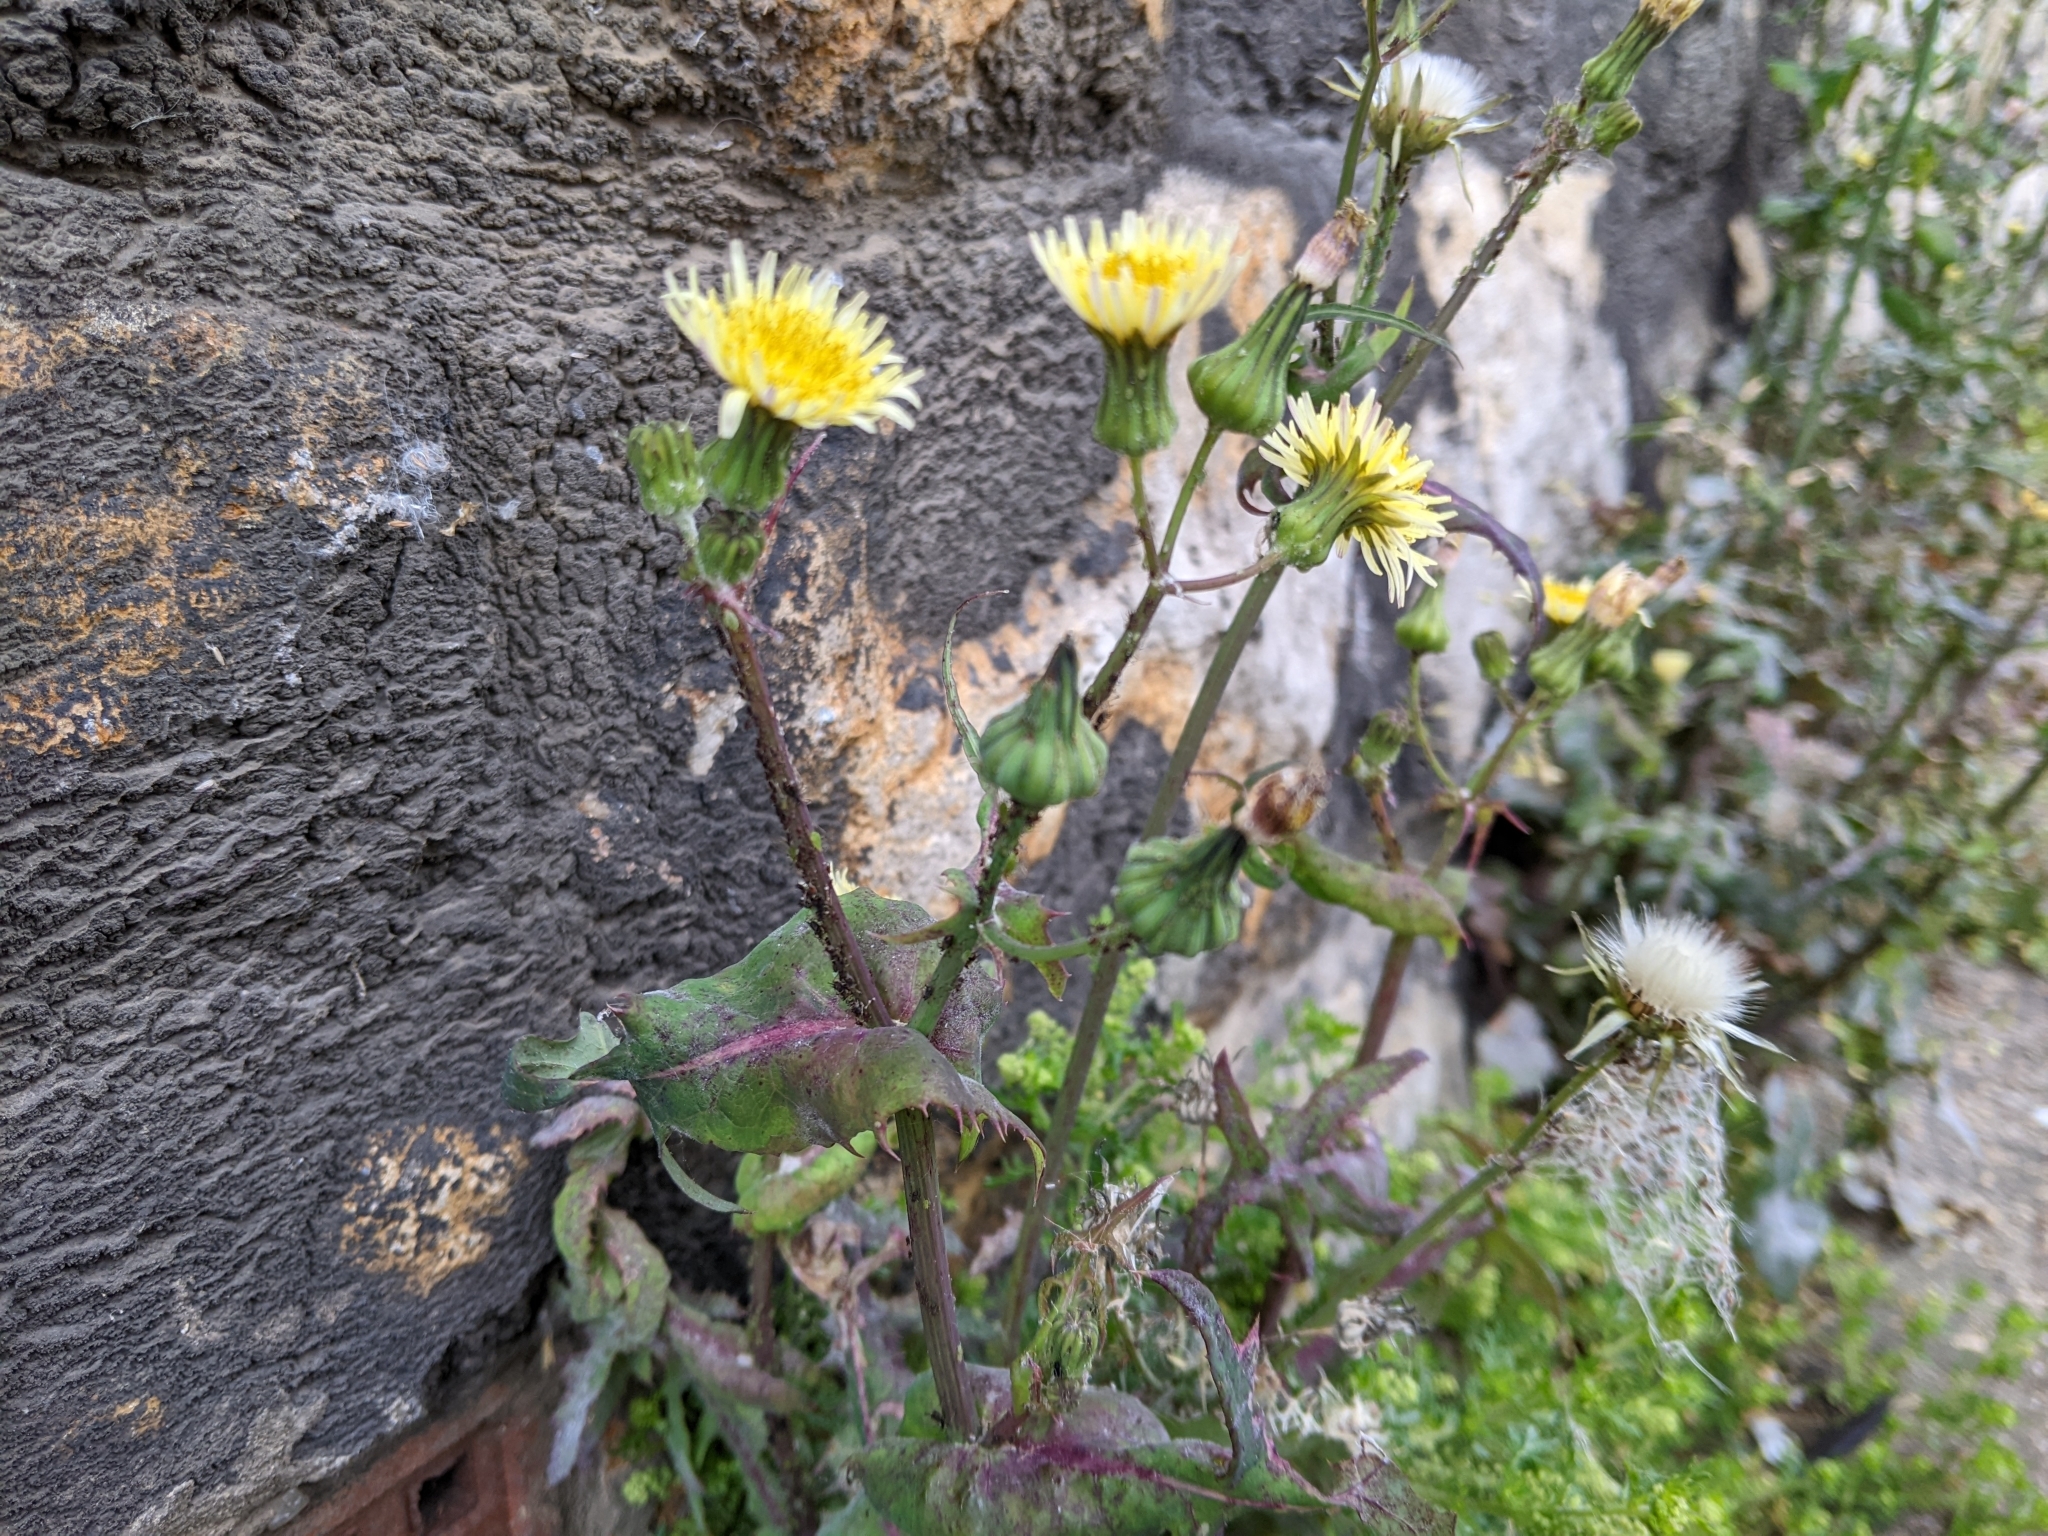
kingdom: Plantae
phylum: Tracheophyta
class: Magnoliopsida
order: Asterales
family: Asteraceae
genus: Sonchus
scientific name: Sonchus oleraceus
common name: Common sowthistle
